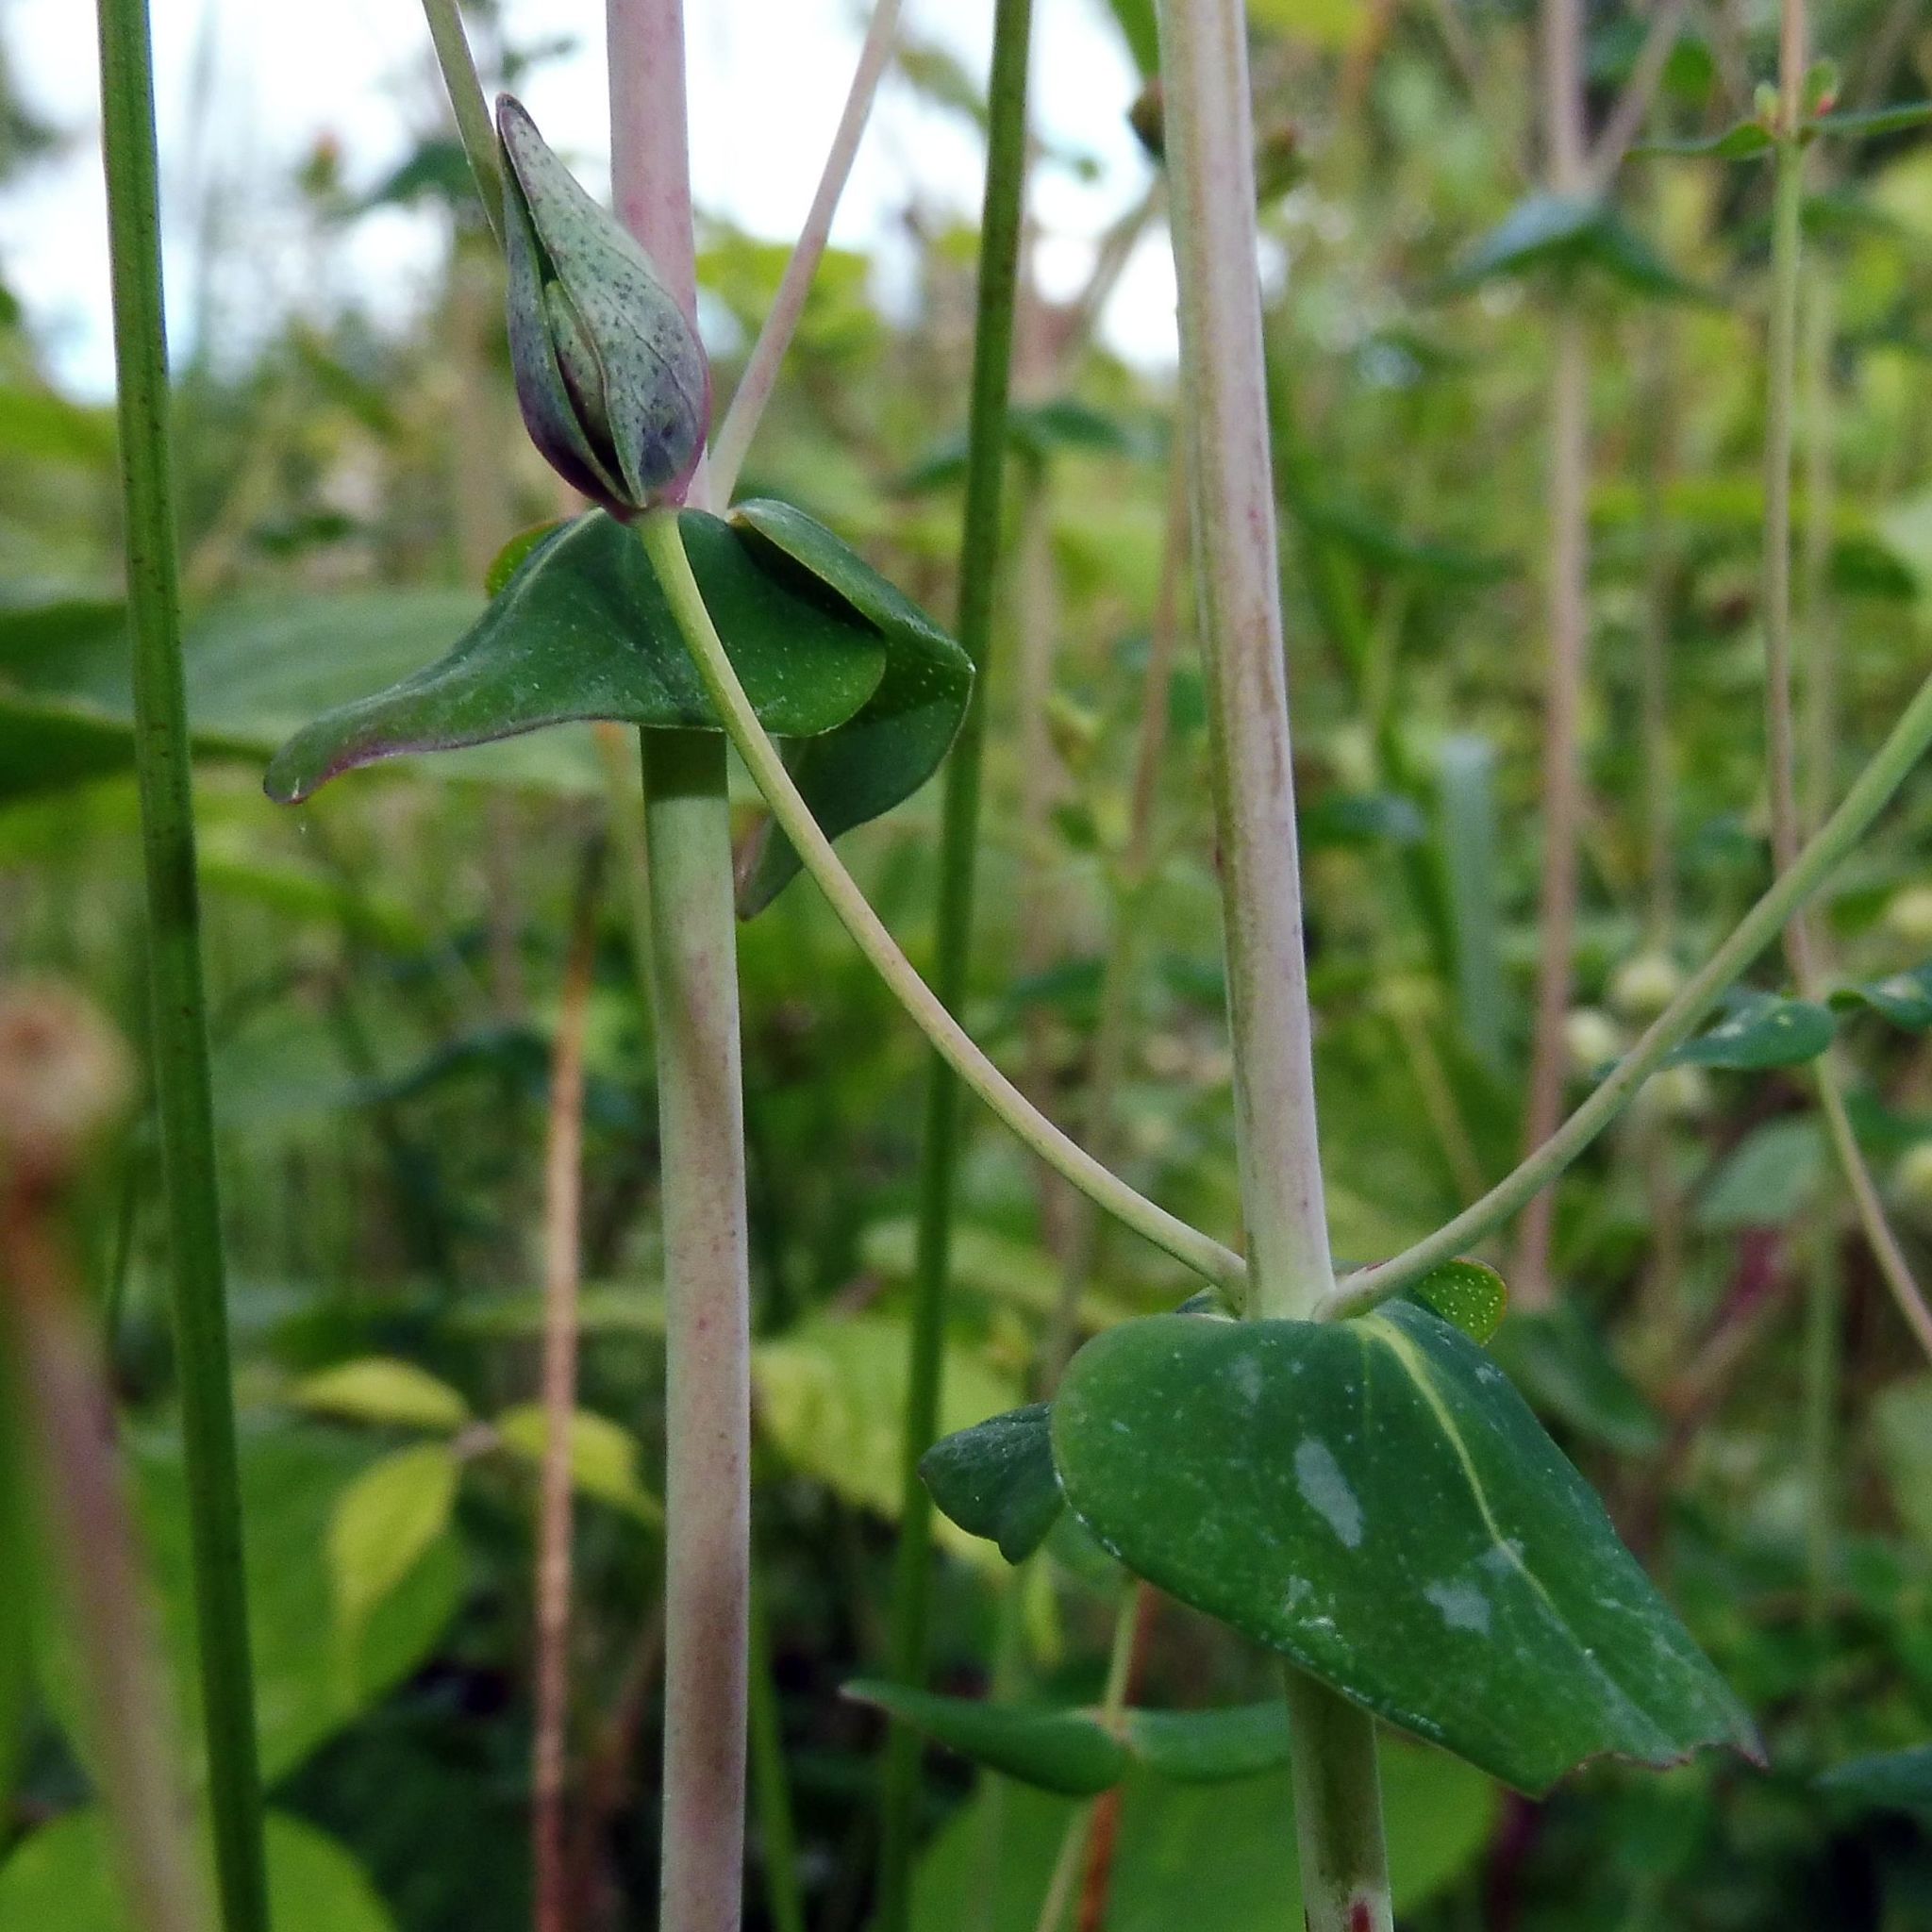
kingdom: Plantae
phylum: Tracheophyta
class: Magnoliopsida
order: Malpighiales
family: Hypericaceae
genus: Hypericum
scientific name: Hypericum pulchrum
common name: Slender st. john's-wort
